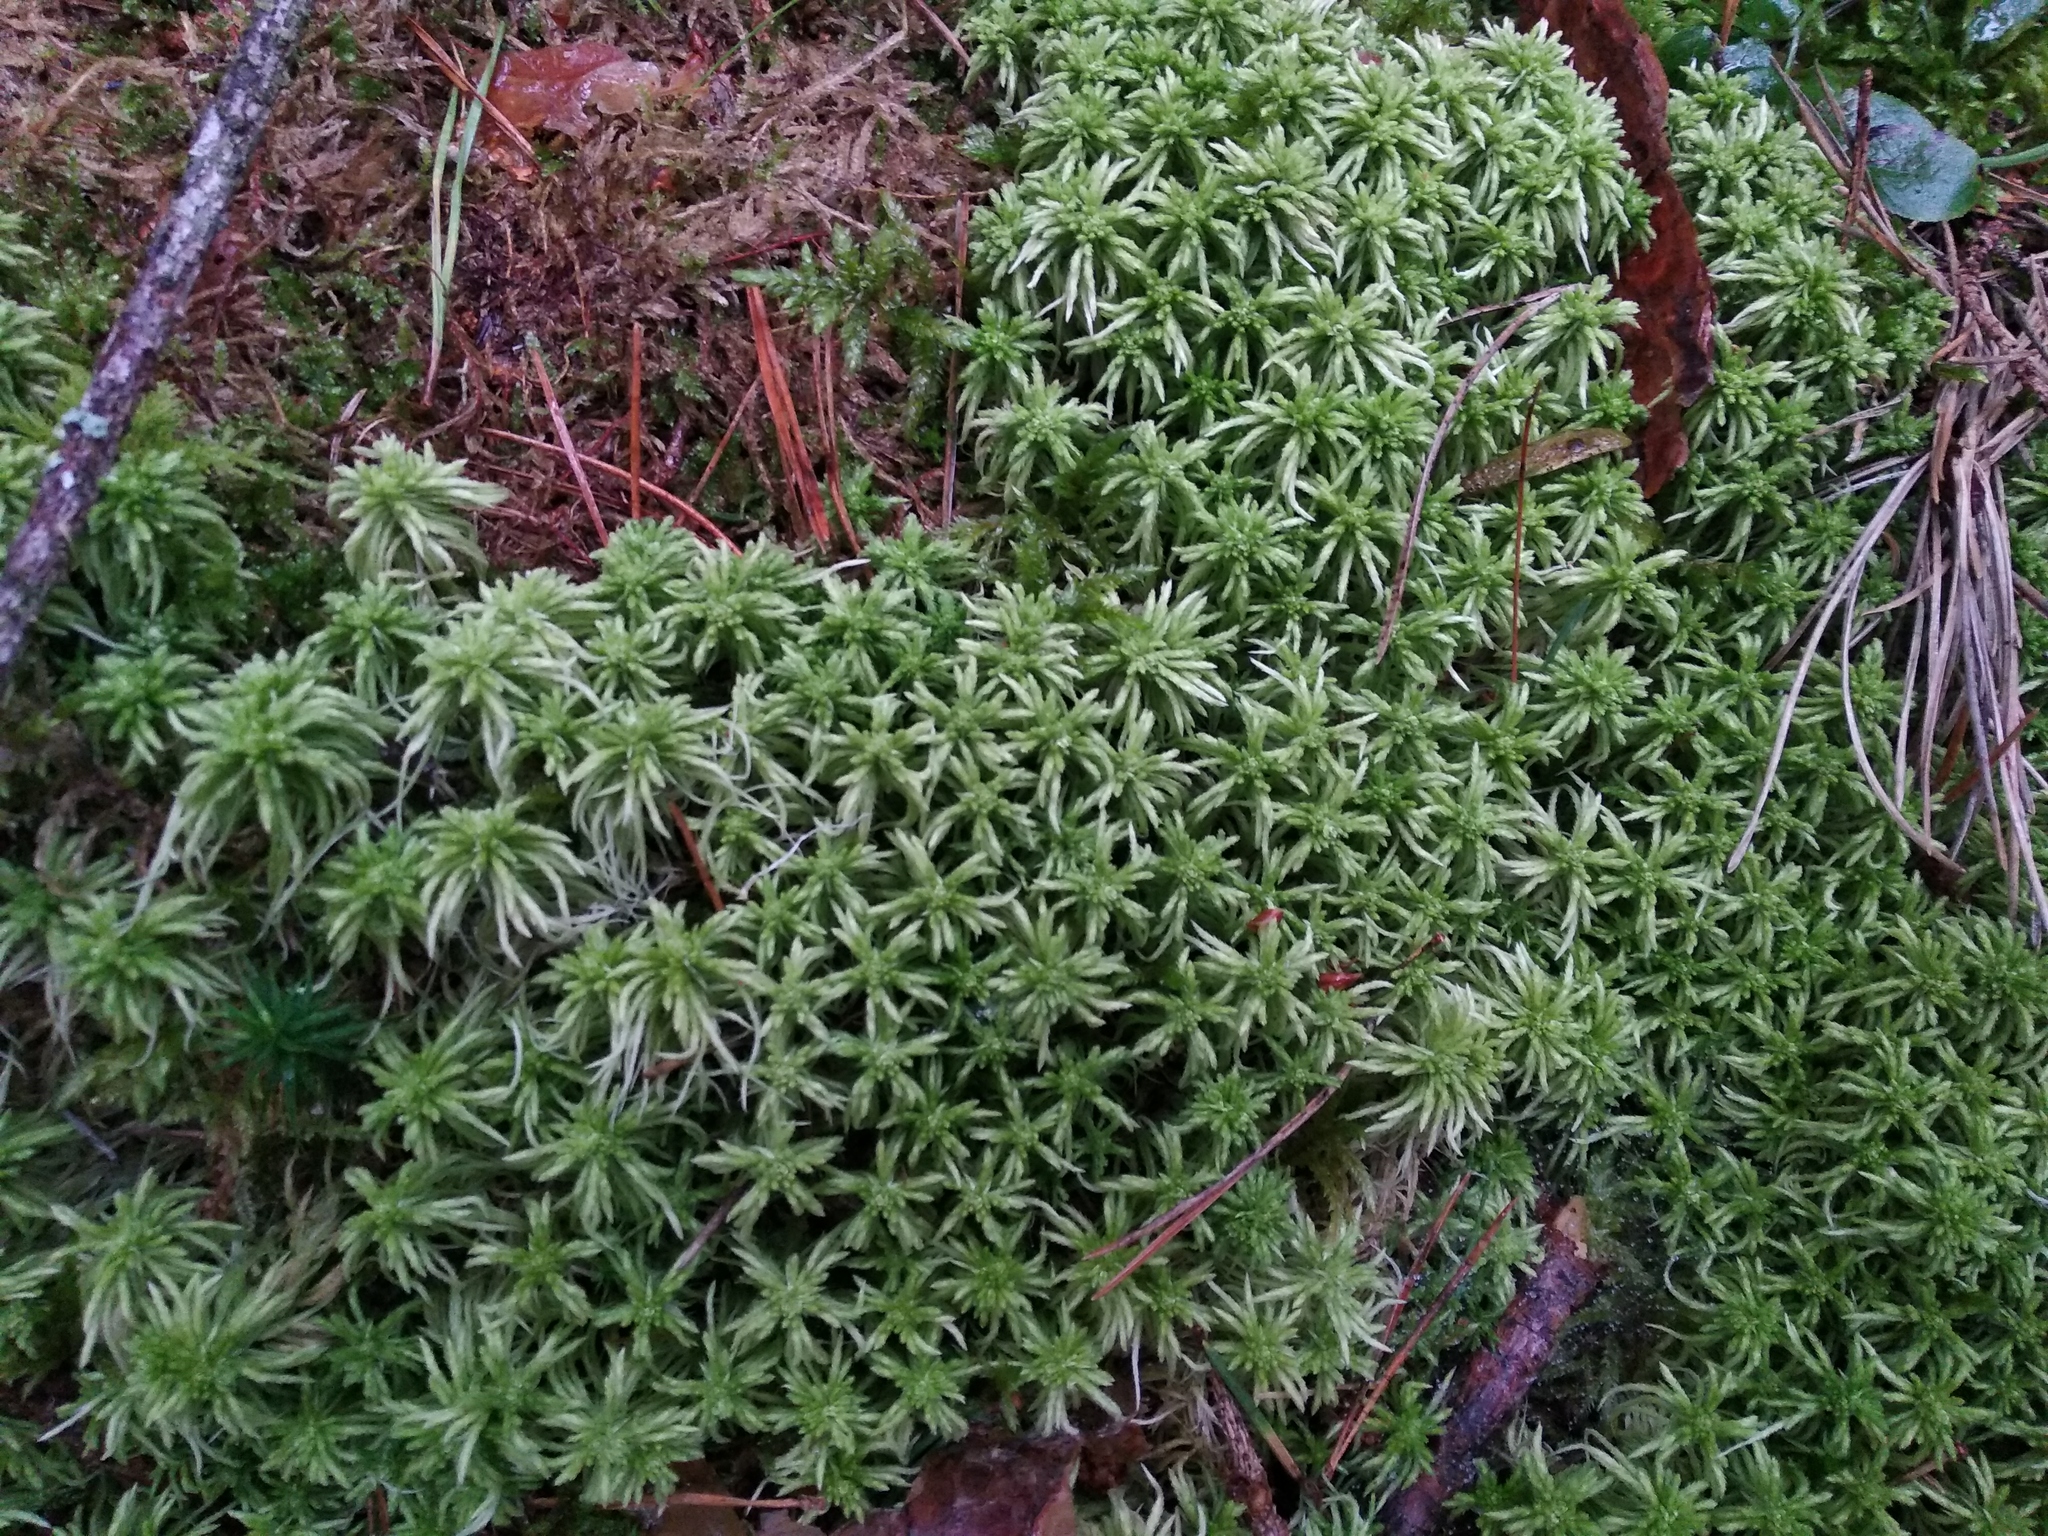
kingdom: Plantae
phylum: Bryophyta
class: Sphagnopsida
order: Sphagnales
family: Sphagnaceae
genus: Sphagnum
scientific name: Sphagnum girgensohnii
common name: Girgensohn's peat moss
